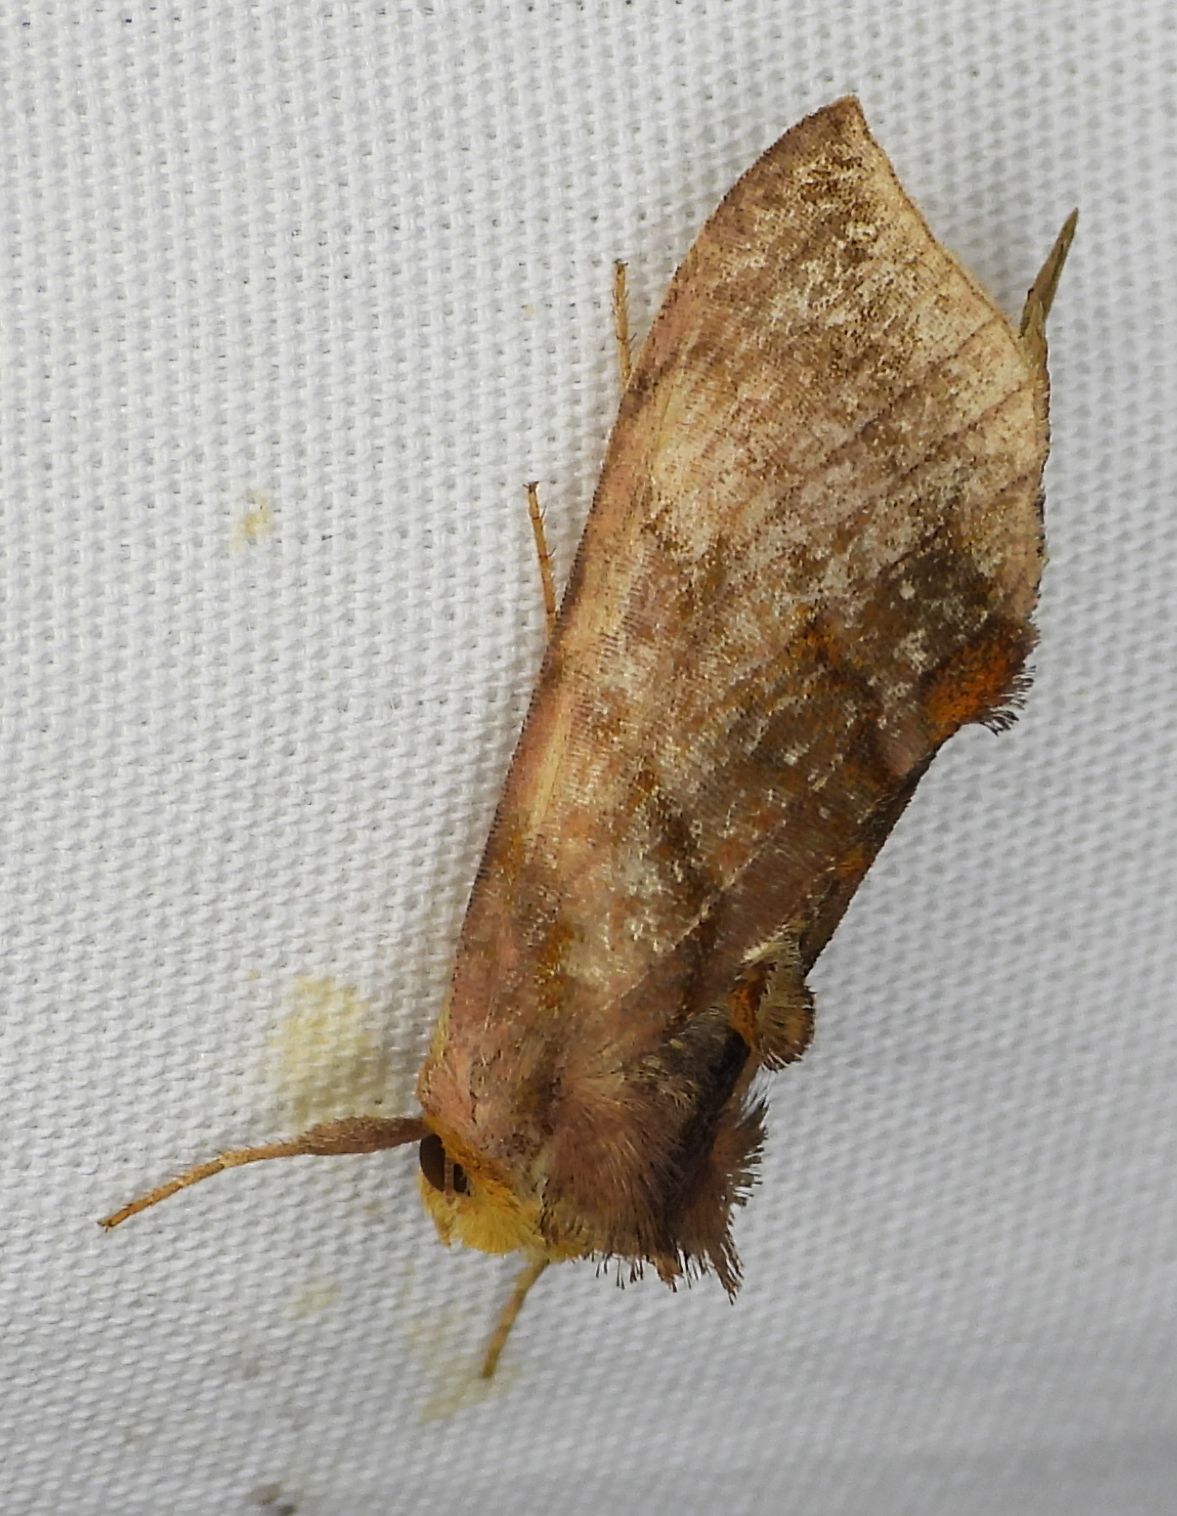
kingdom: Animalia
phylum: Arthropoda
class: Insecta
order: Lepidoptera
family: Noctuidae
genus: Allagrapha
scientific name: Allagrapha aerea
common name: Unspotted looper moth
